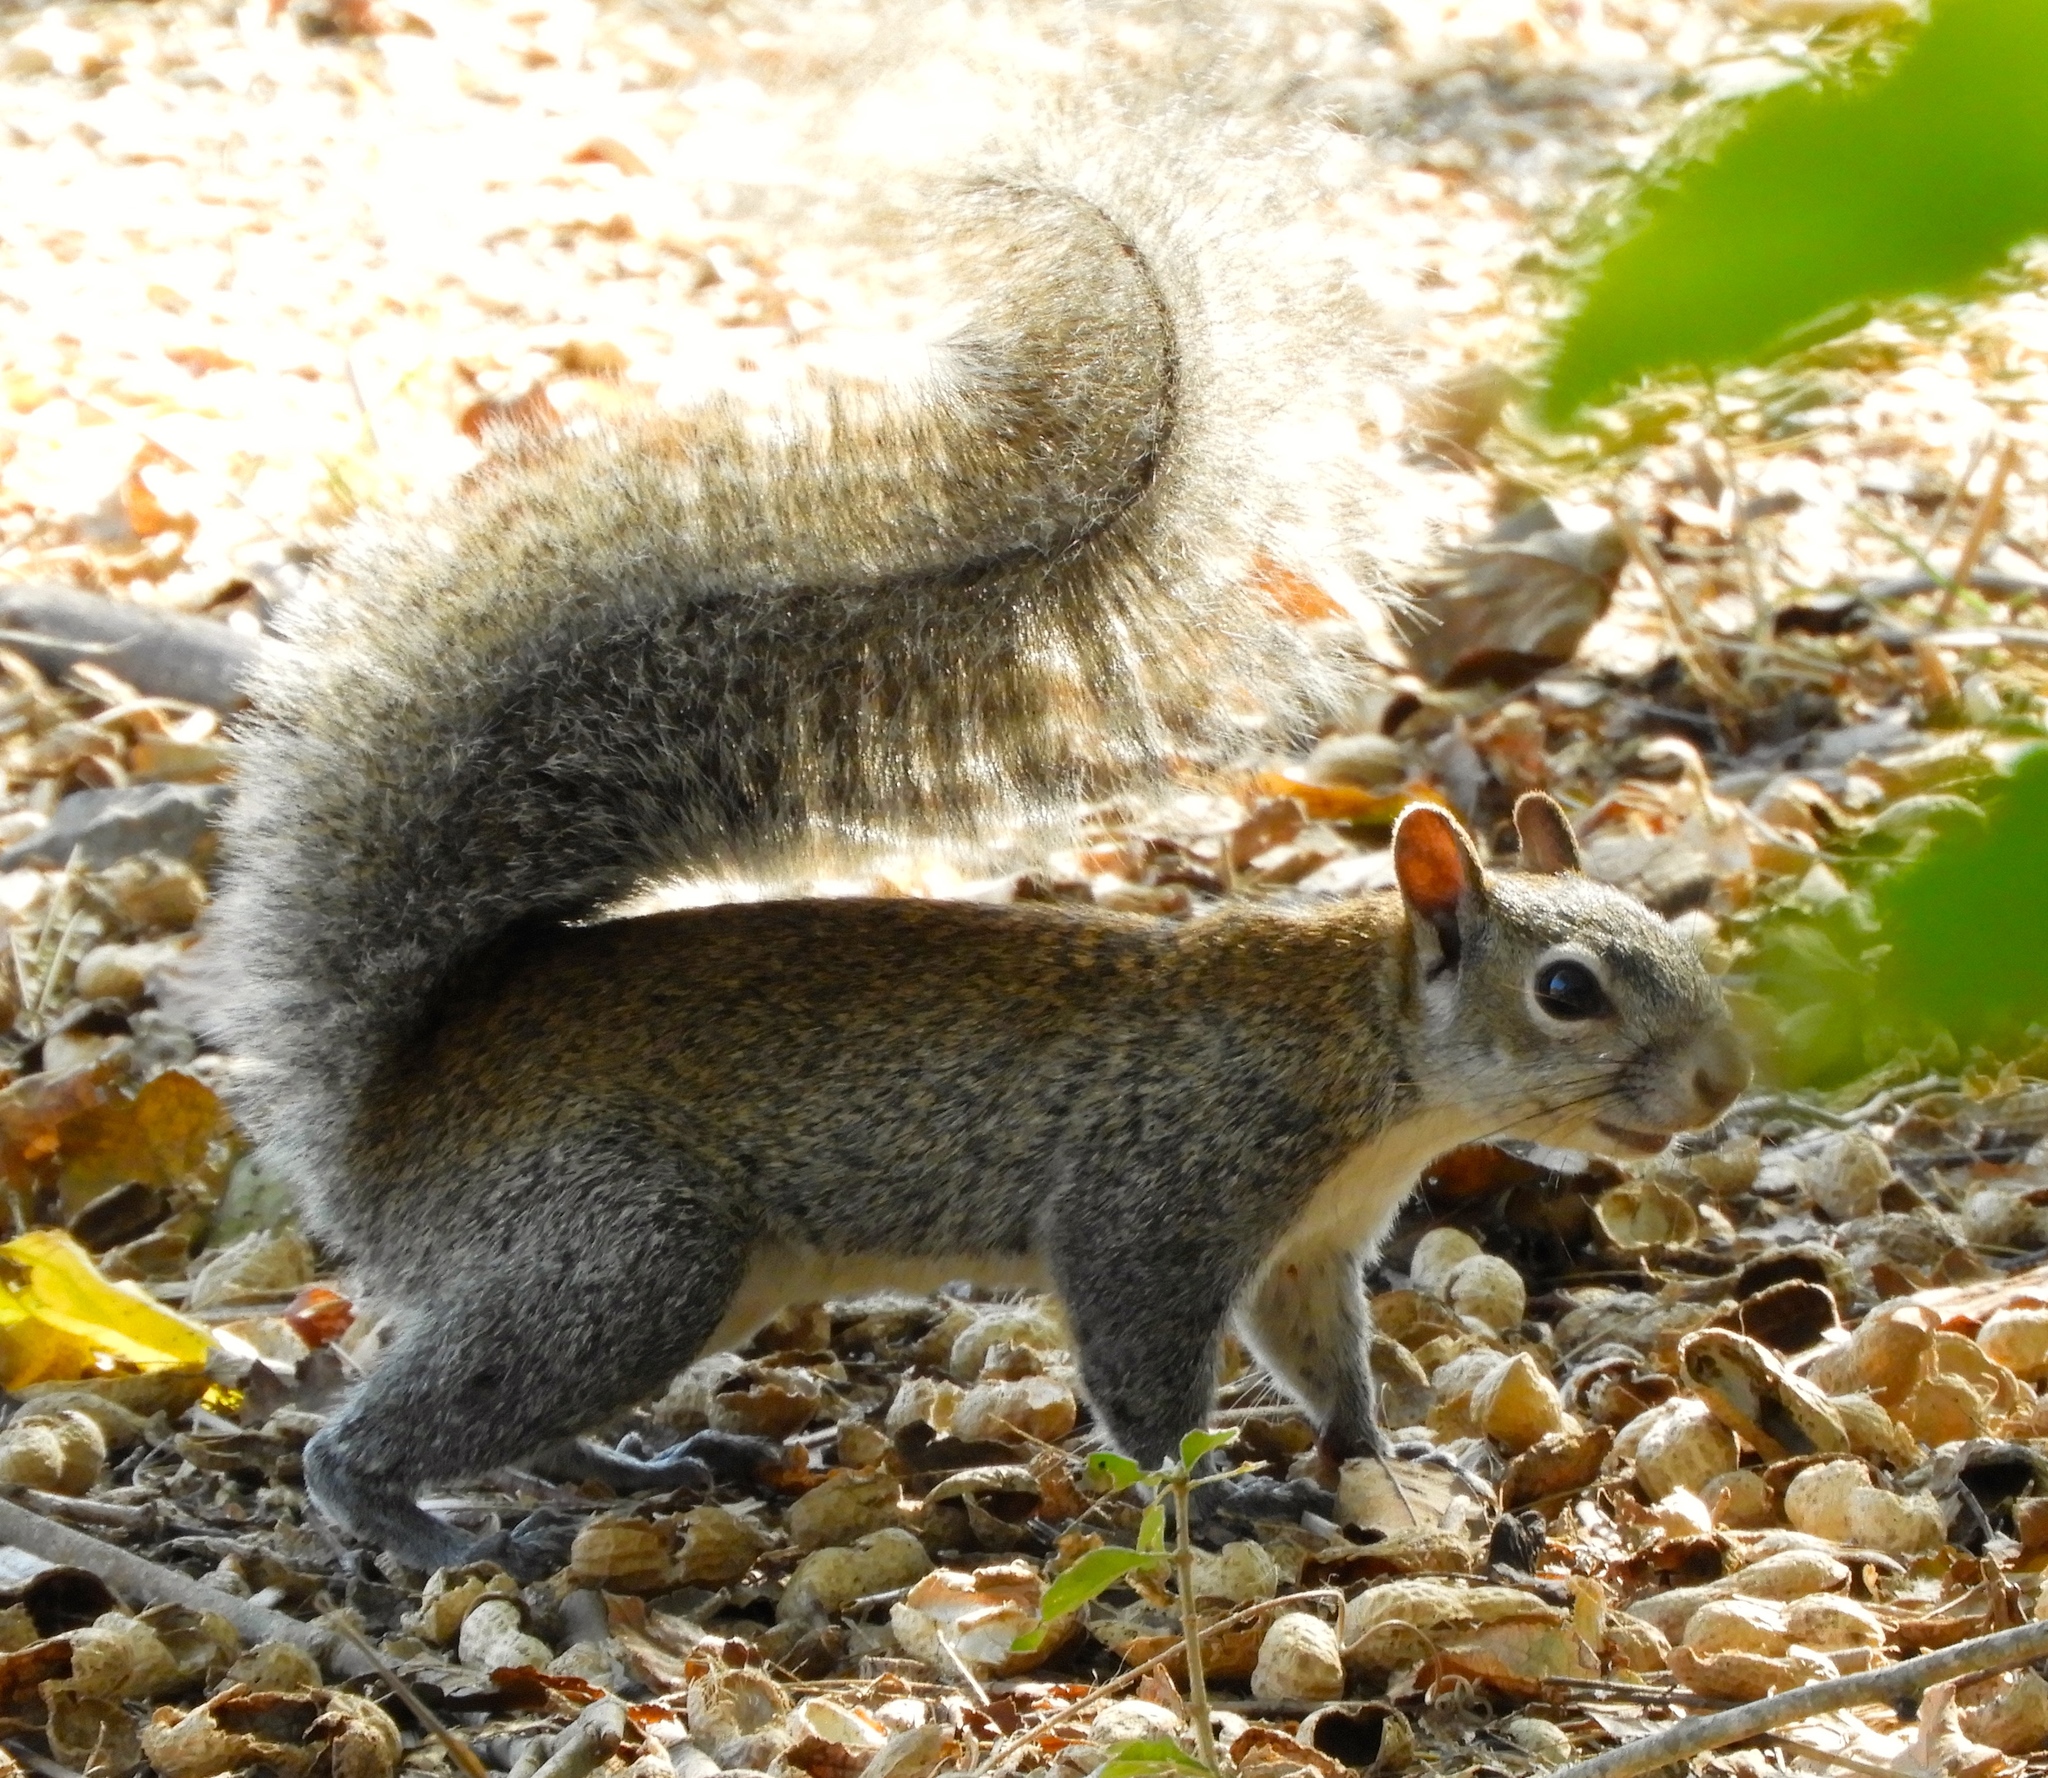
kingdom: Animalia
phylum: Chordata
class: Mammalia
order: Rodentia
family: Sciuridae
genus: Sciurus
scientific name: Sciurus colliaei
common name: Collie's squirrel
